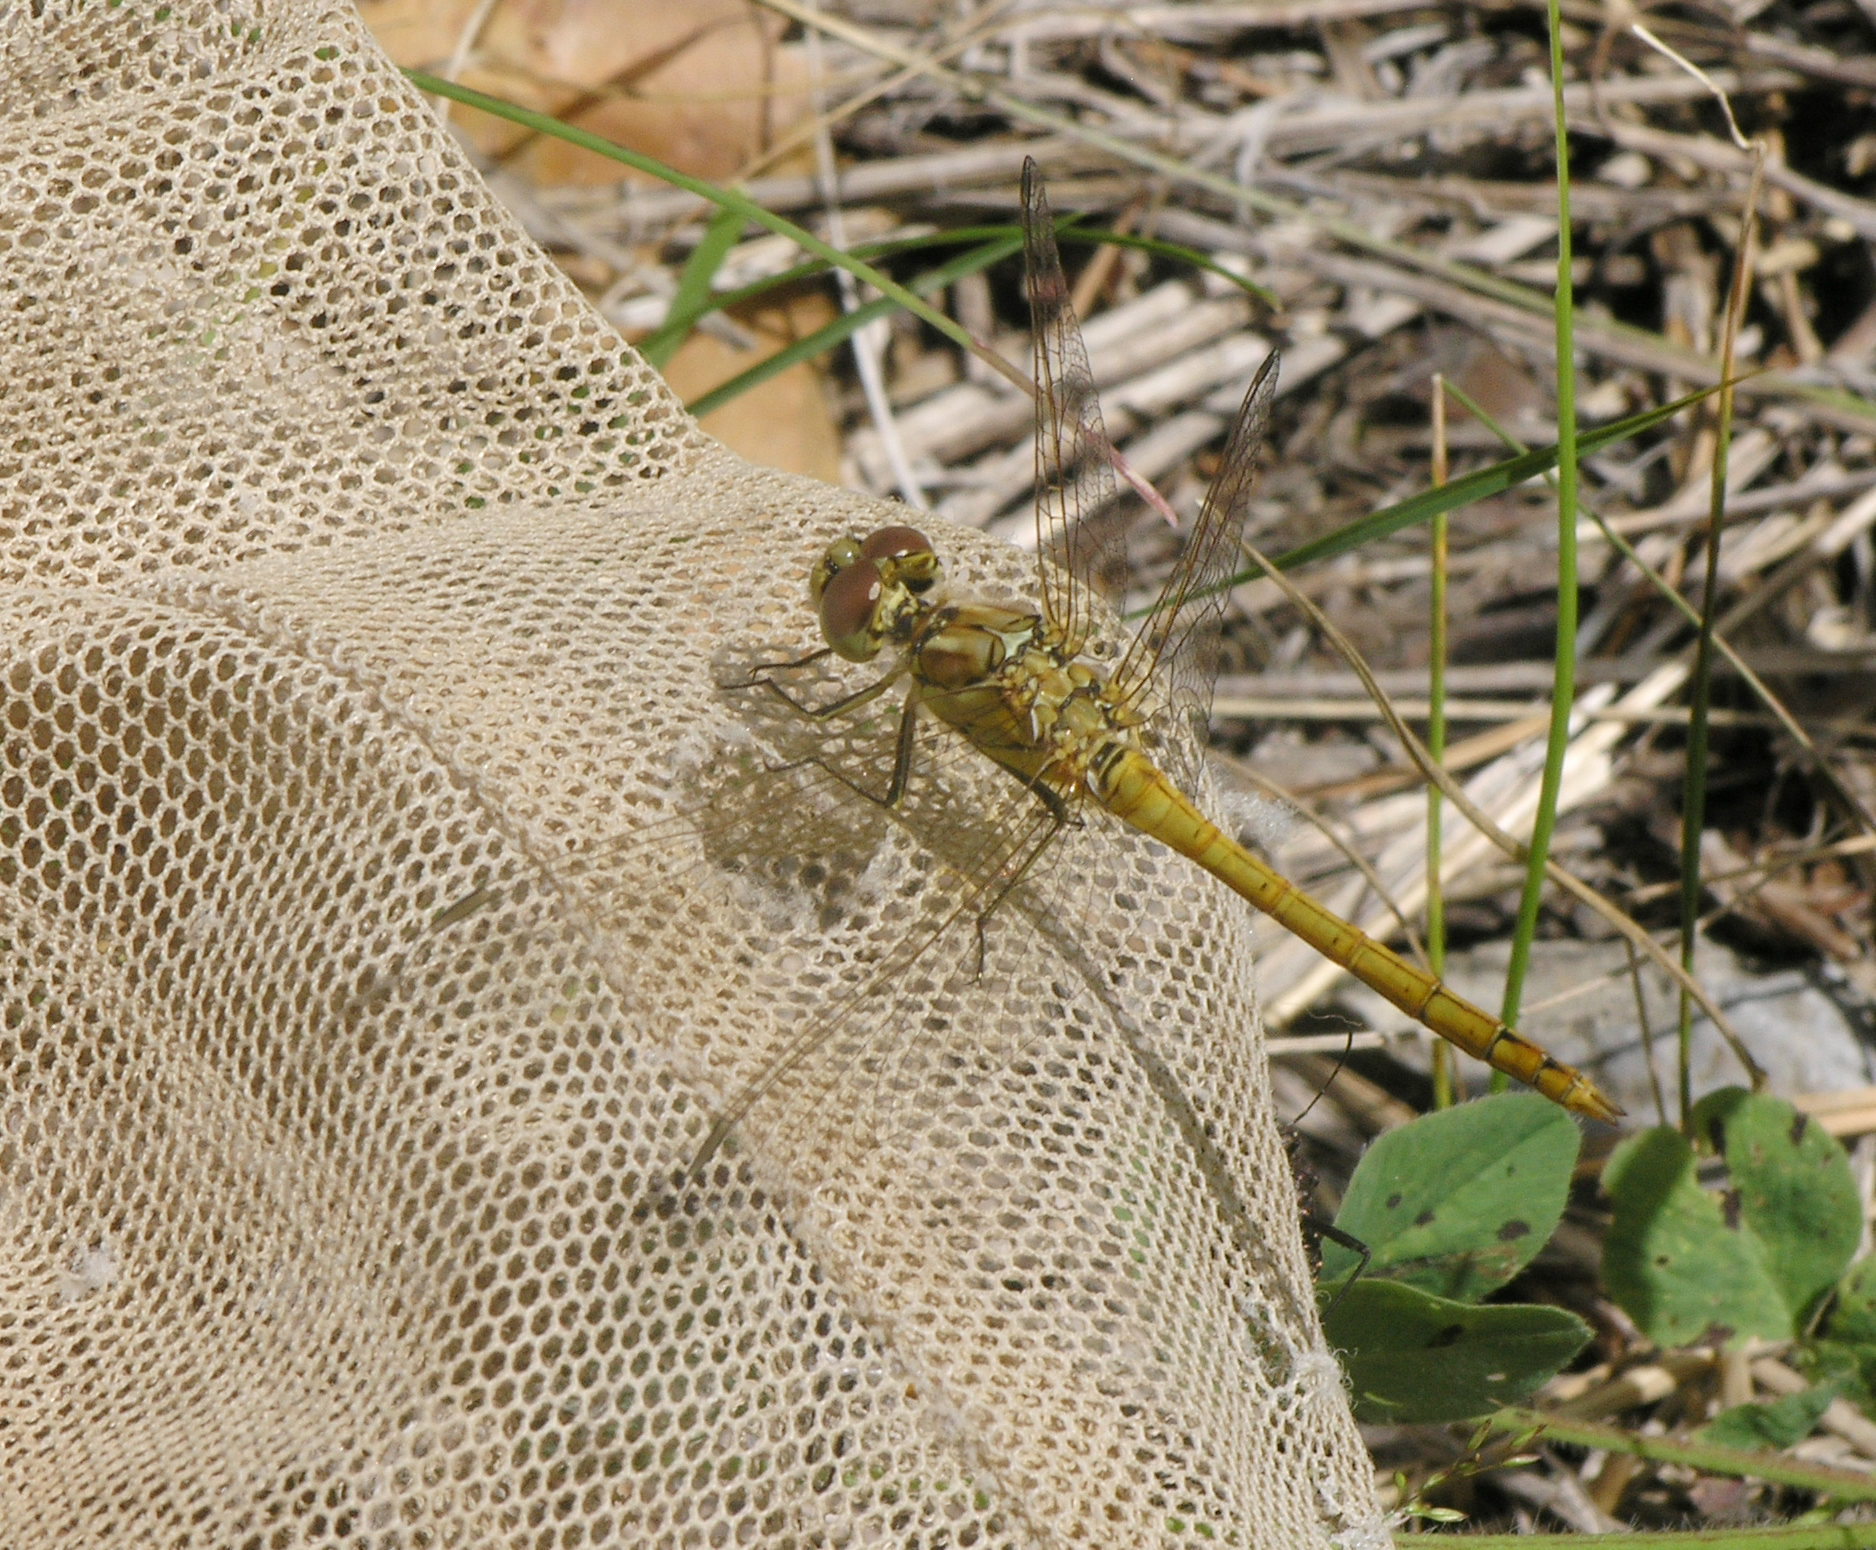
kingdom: Animalia
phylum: Arthropoda
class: Insecta
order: Odonata
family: Libellulidae
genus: Sympetrum
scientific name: Sympetrum vulgatum
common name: Vagrant darter
